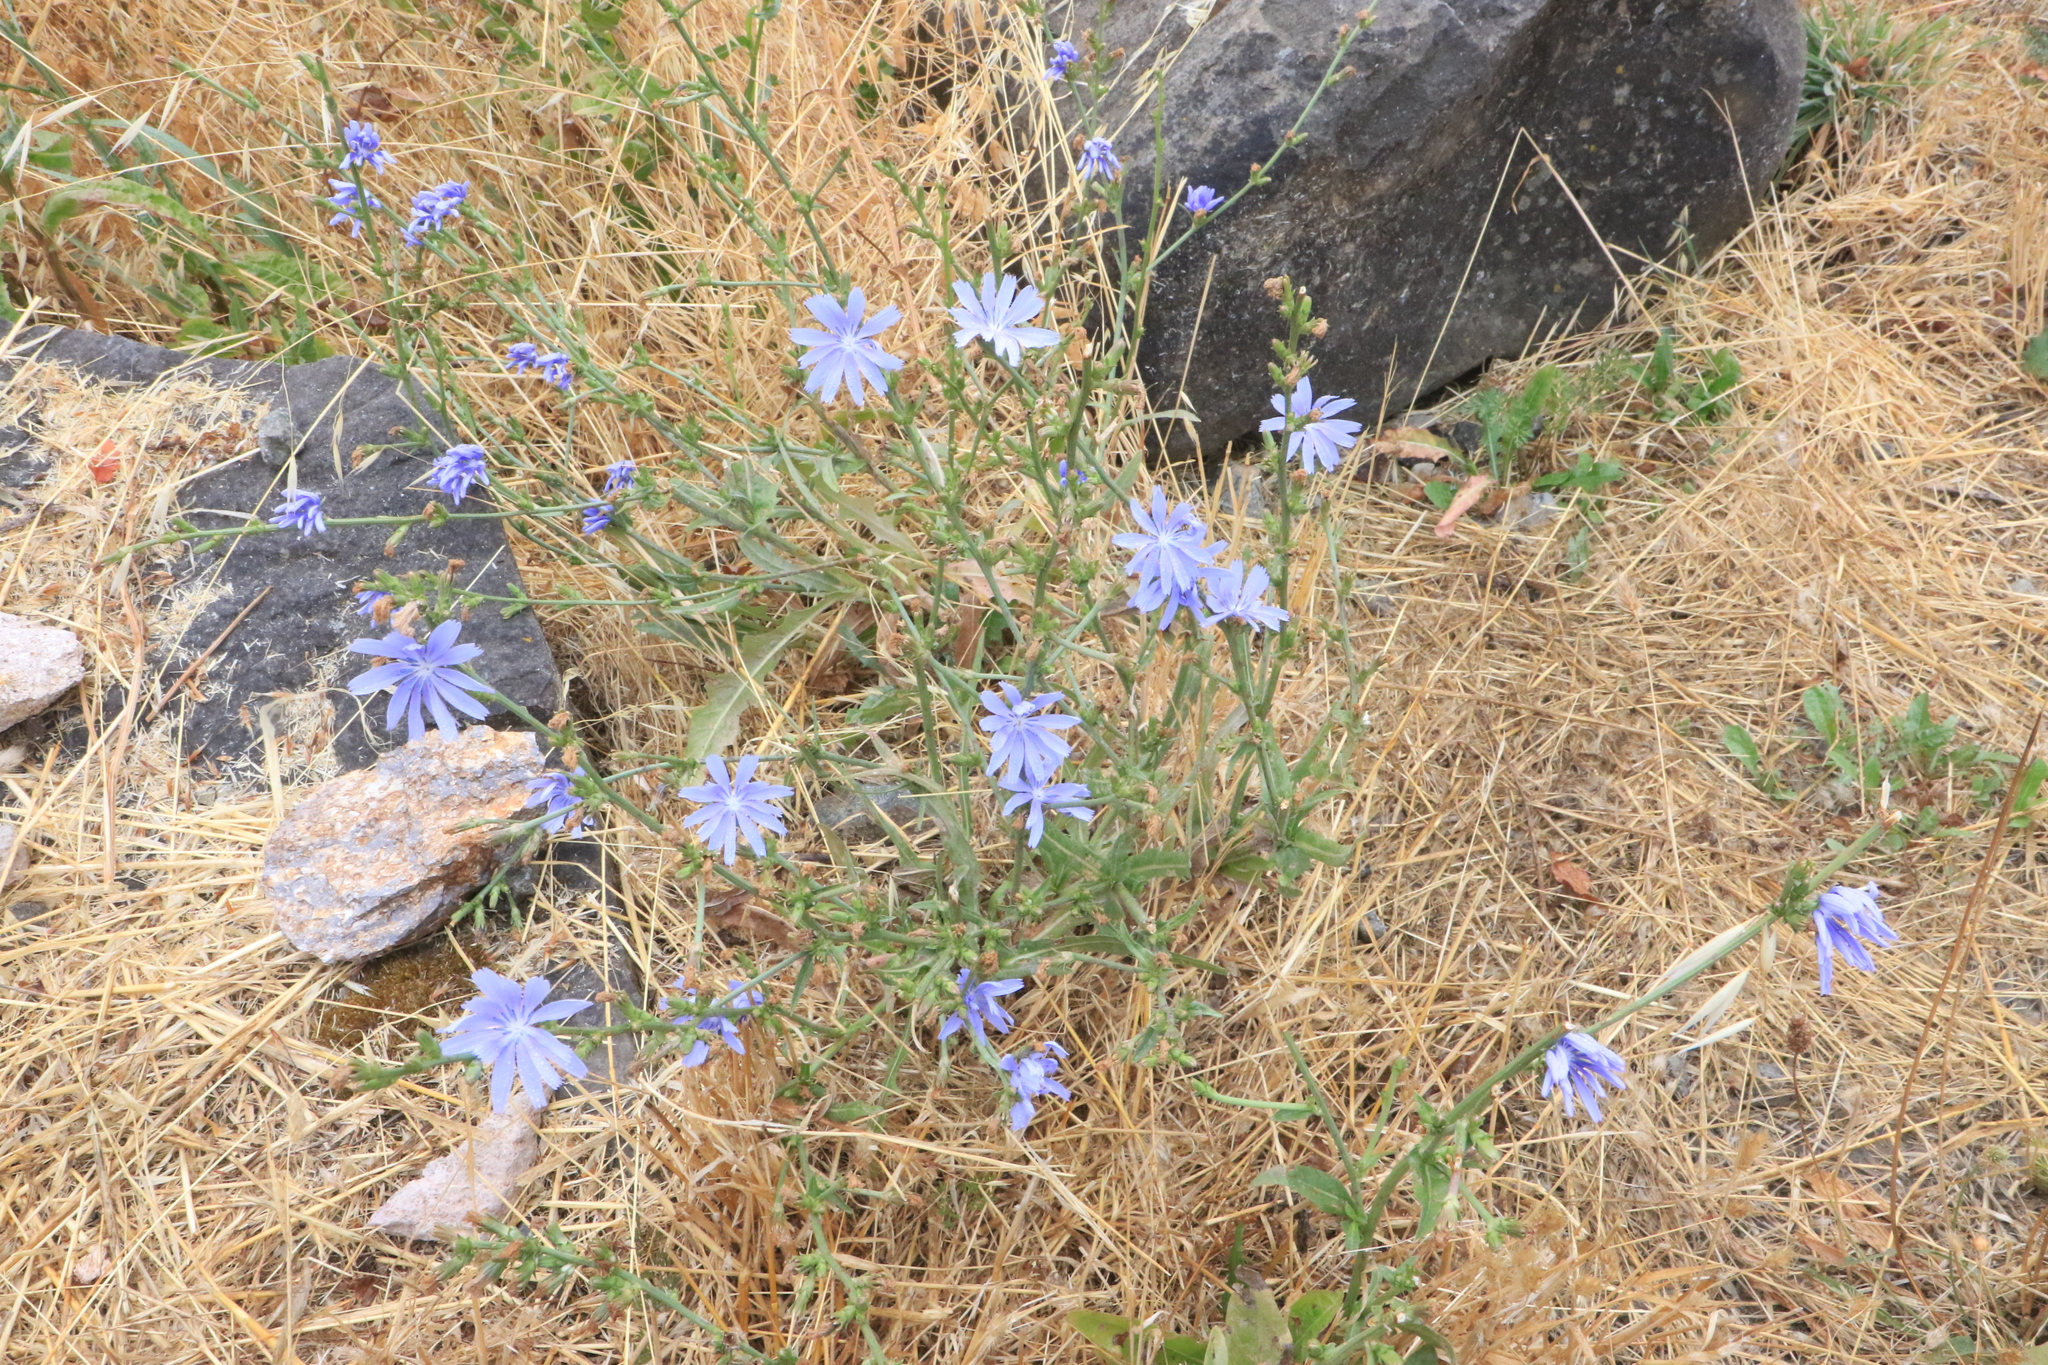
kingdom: Plantae
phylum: Tracheophyta
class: Magnoliopsida
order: Asterales
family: Asteraceae
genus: Cichorium
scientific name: Cichorium intybus
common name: Chicory
